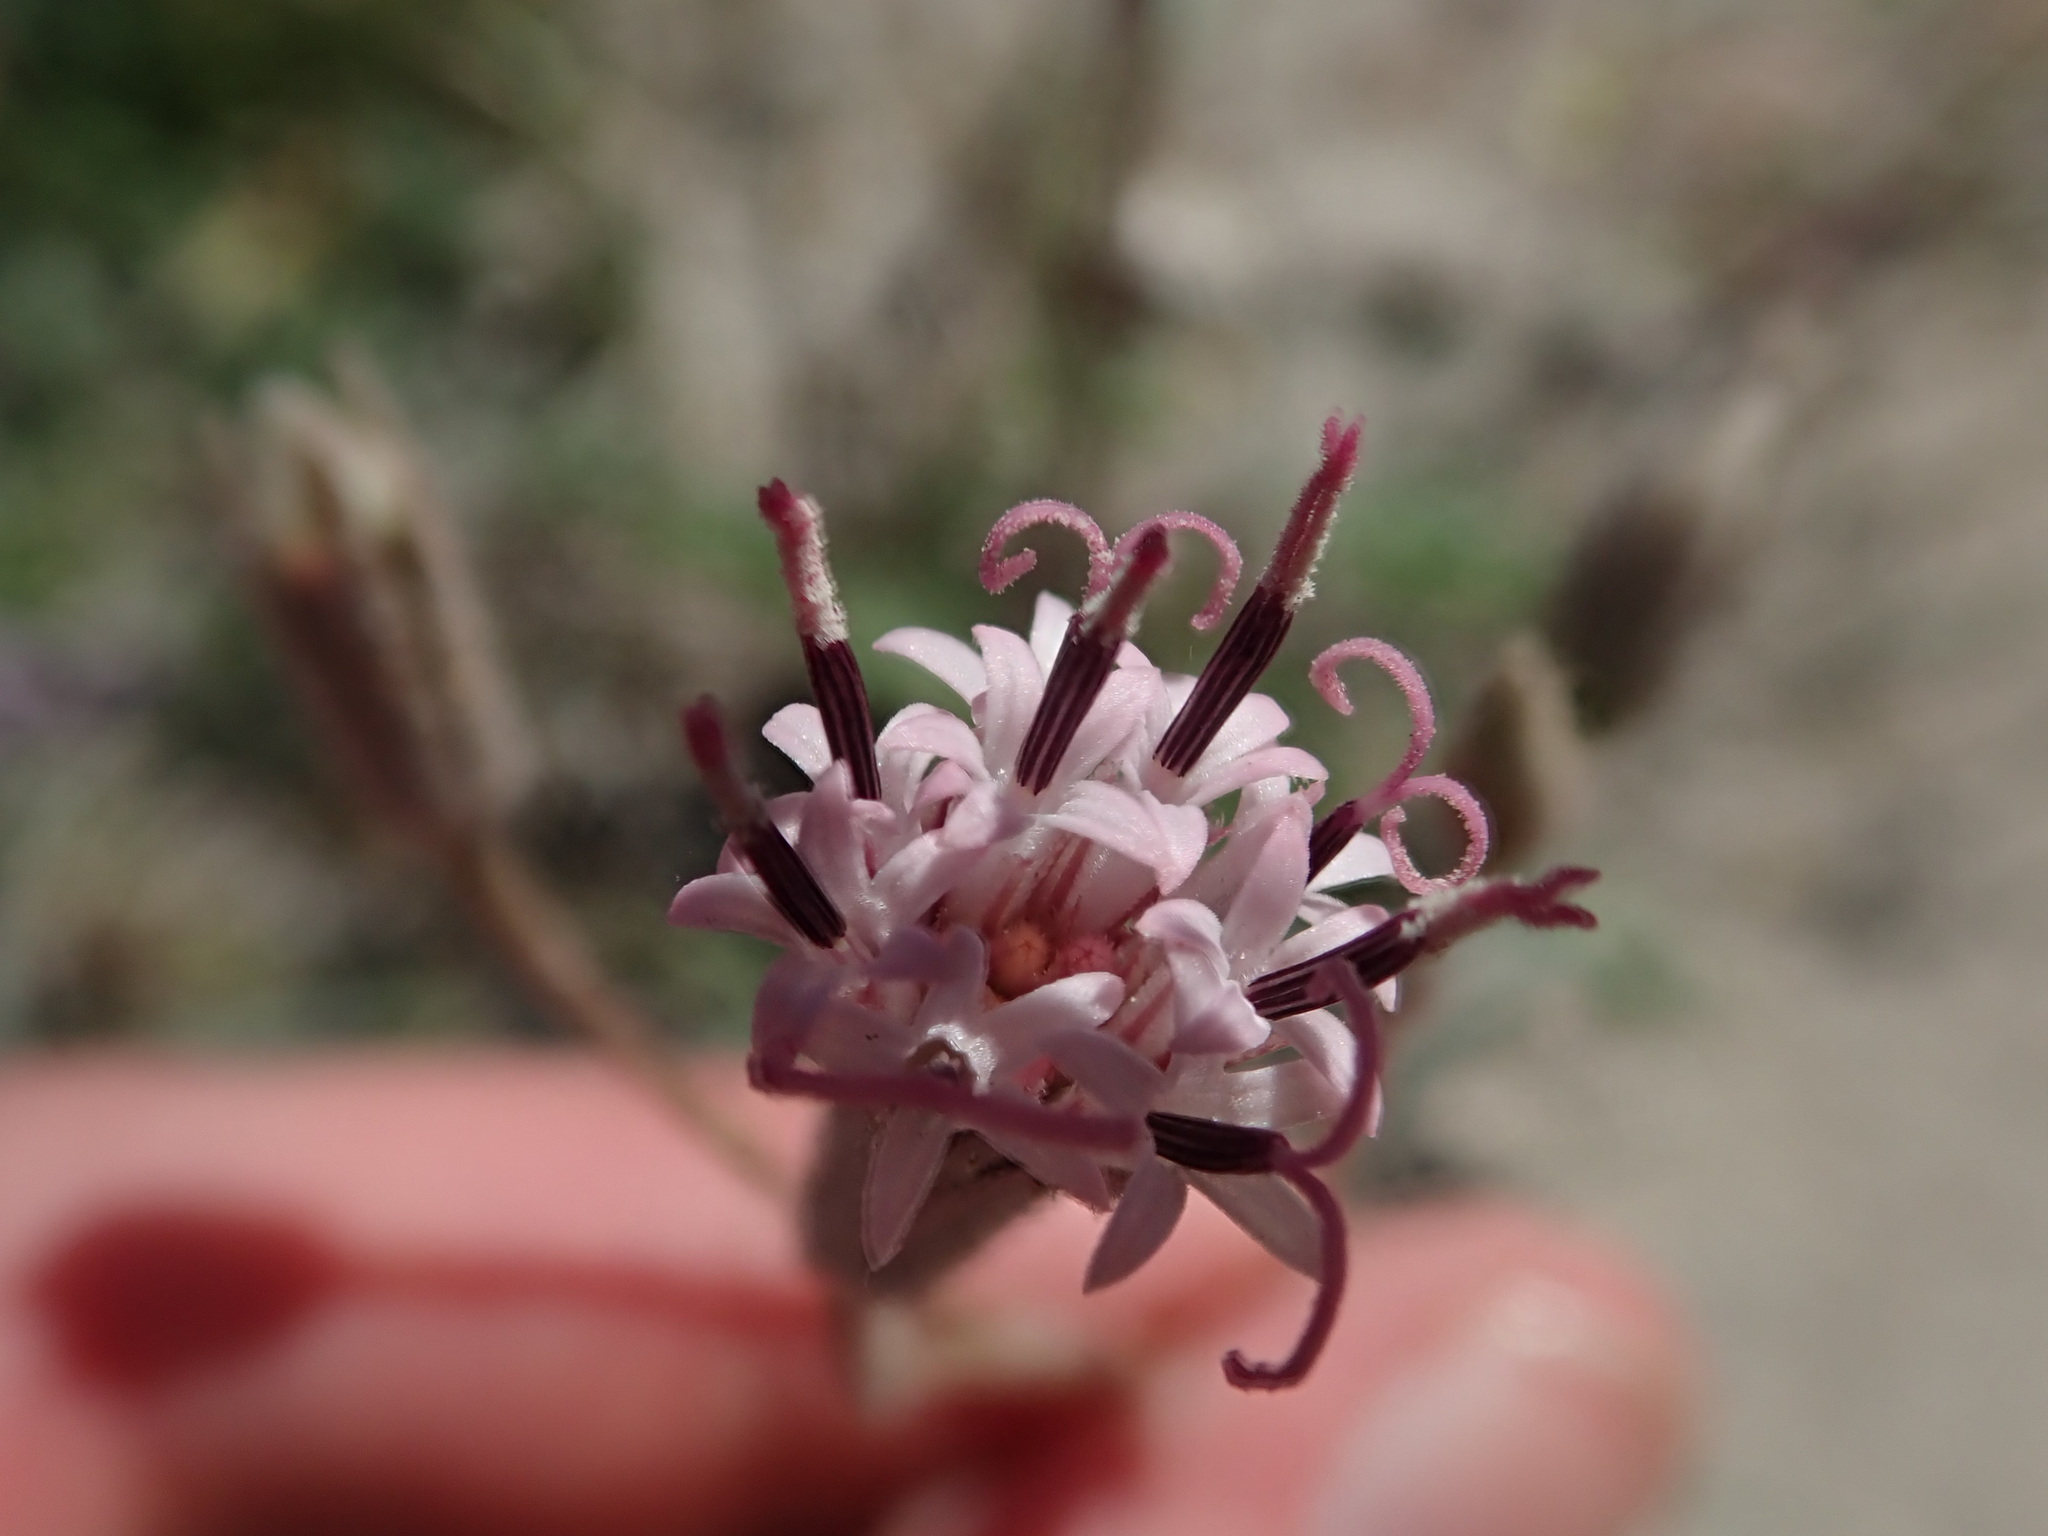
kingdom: Plantae
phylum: Tracheophyta
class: Magnoliopsida
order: Asterales
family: Asteraceae
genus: Palafoxia
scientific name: Palafoxia arida
